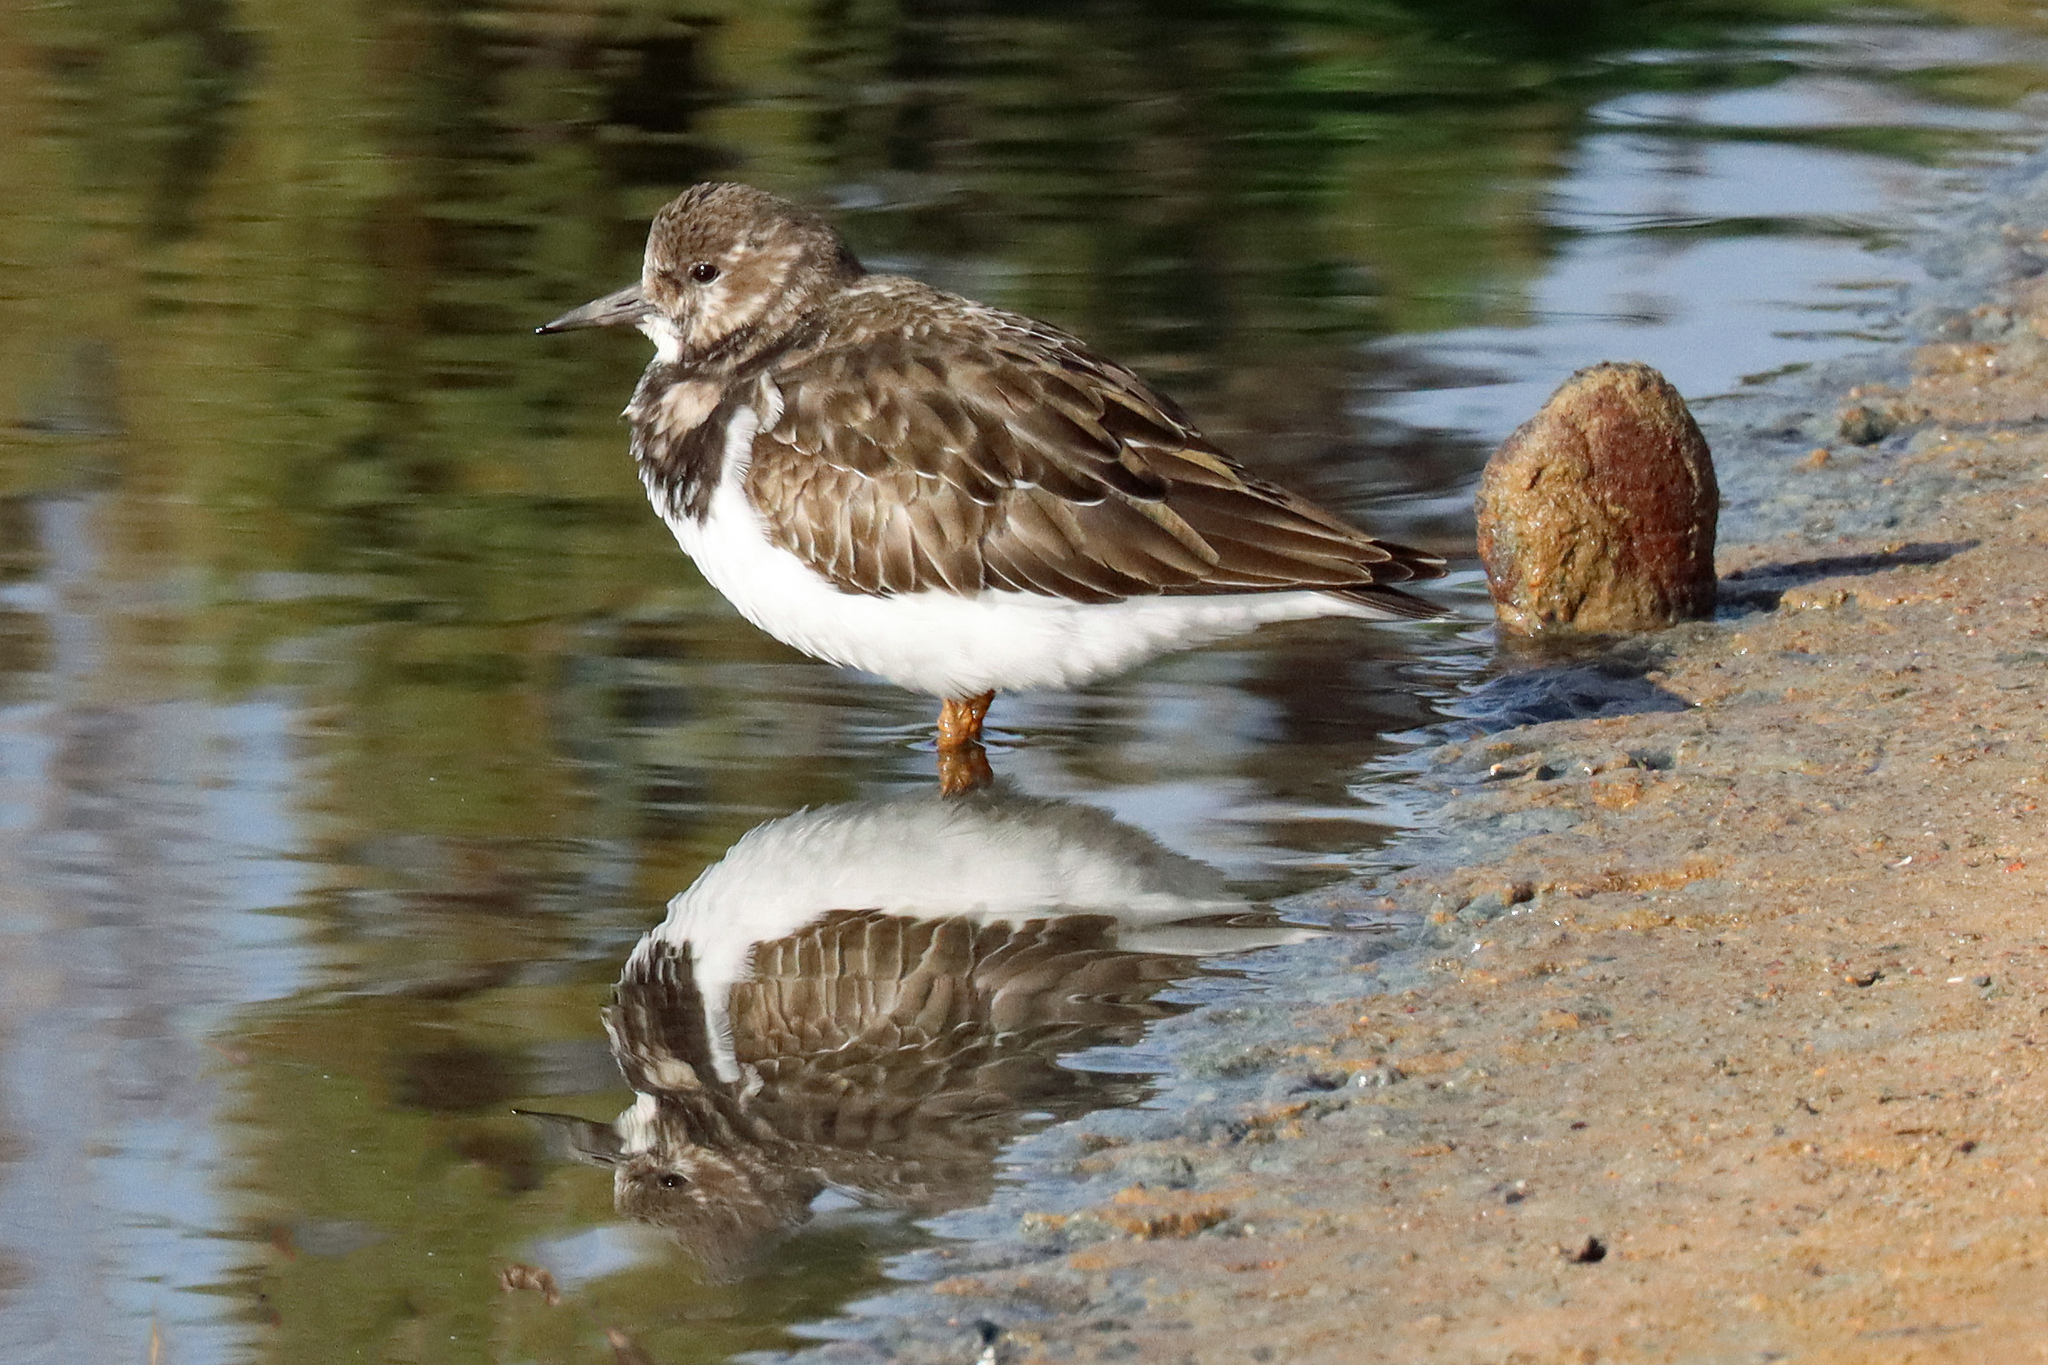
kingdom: Animalia
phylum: Chordata
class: Aves
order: Charadriiformes
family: Scolopacidae
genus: Arenaria
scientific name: Arenaria interpres
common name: Ruddy turnstone
